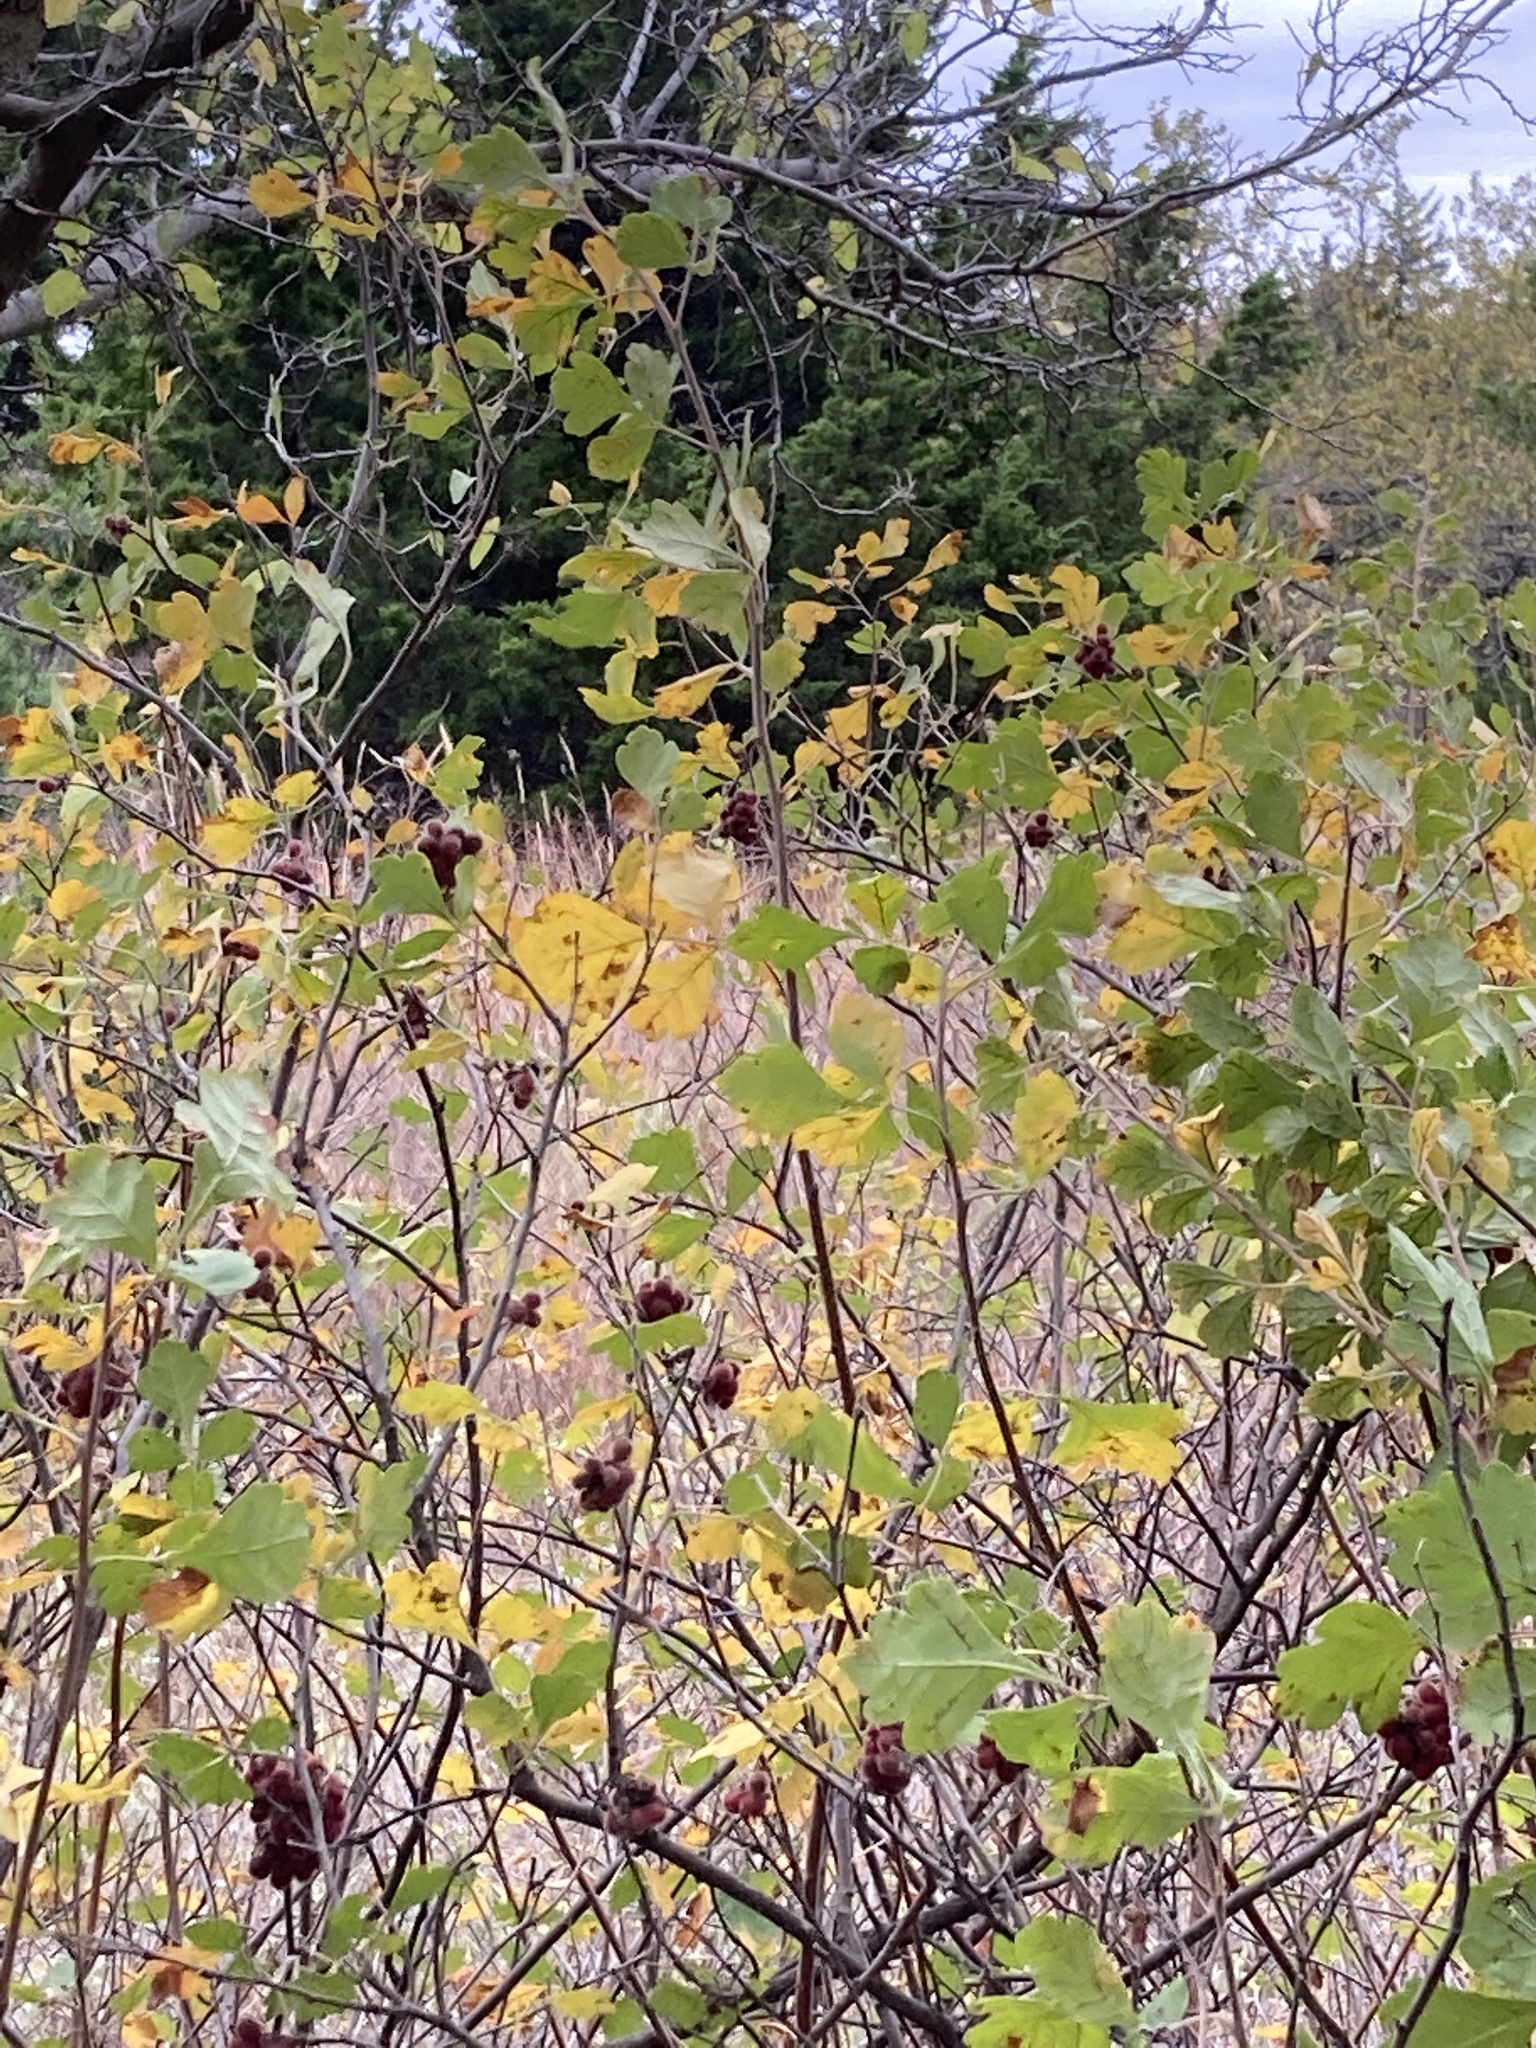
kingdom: Plantae
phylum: Tracheophyta
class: Magnoliopsida
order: Sapindales
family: Anacardiaceae
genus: Rhus
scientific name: Rhus aromatica
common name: Aromatic sumac
